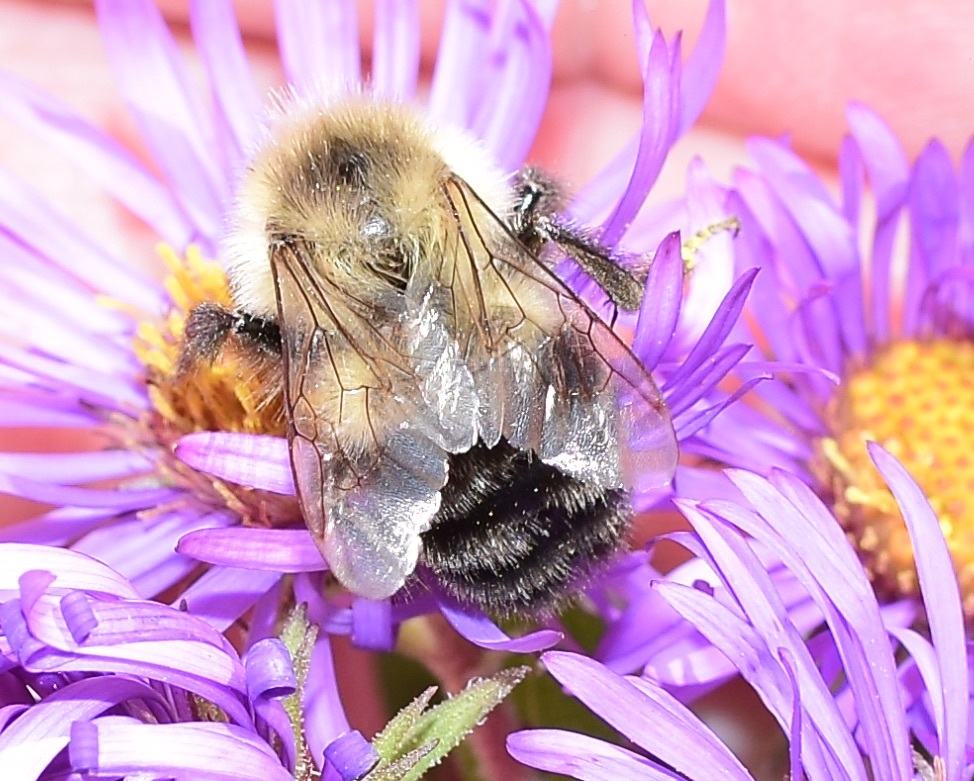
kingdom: Animalia
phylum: Arthropoda
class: Insecta
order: Hymenoptera
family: Apidae
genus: Bombus
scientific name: Bombus impatiens
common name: Common eastern bumble bee
